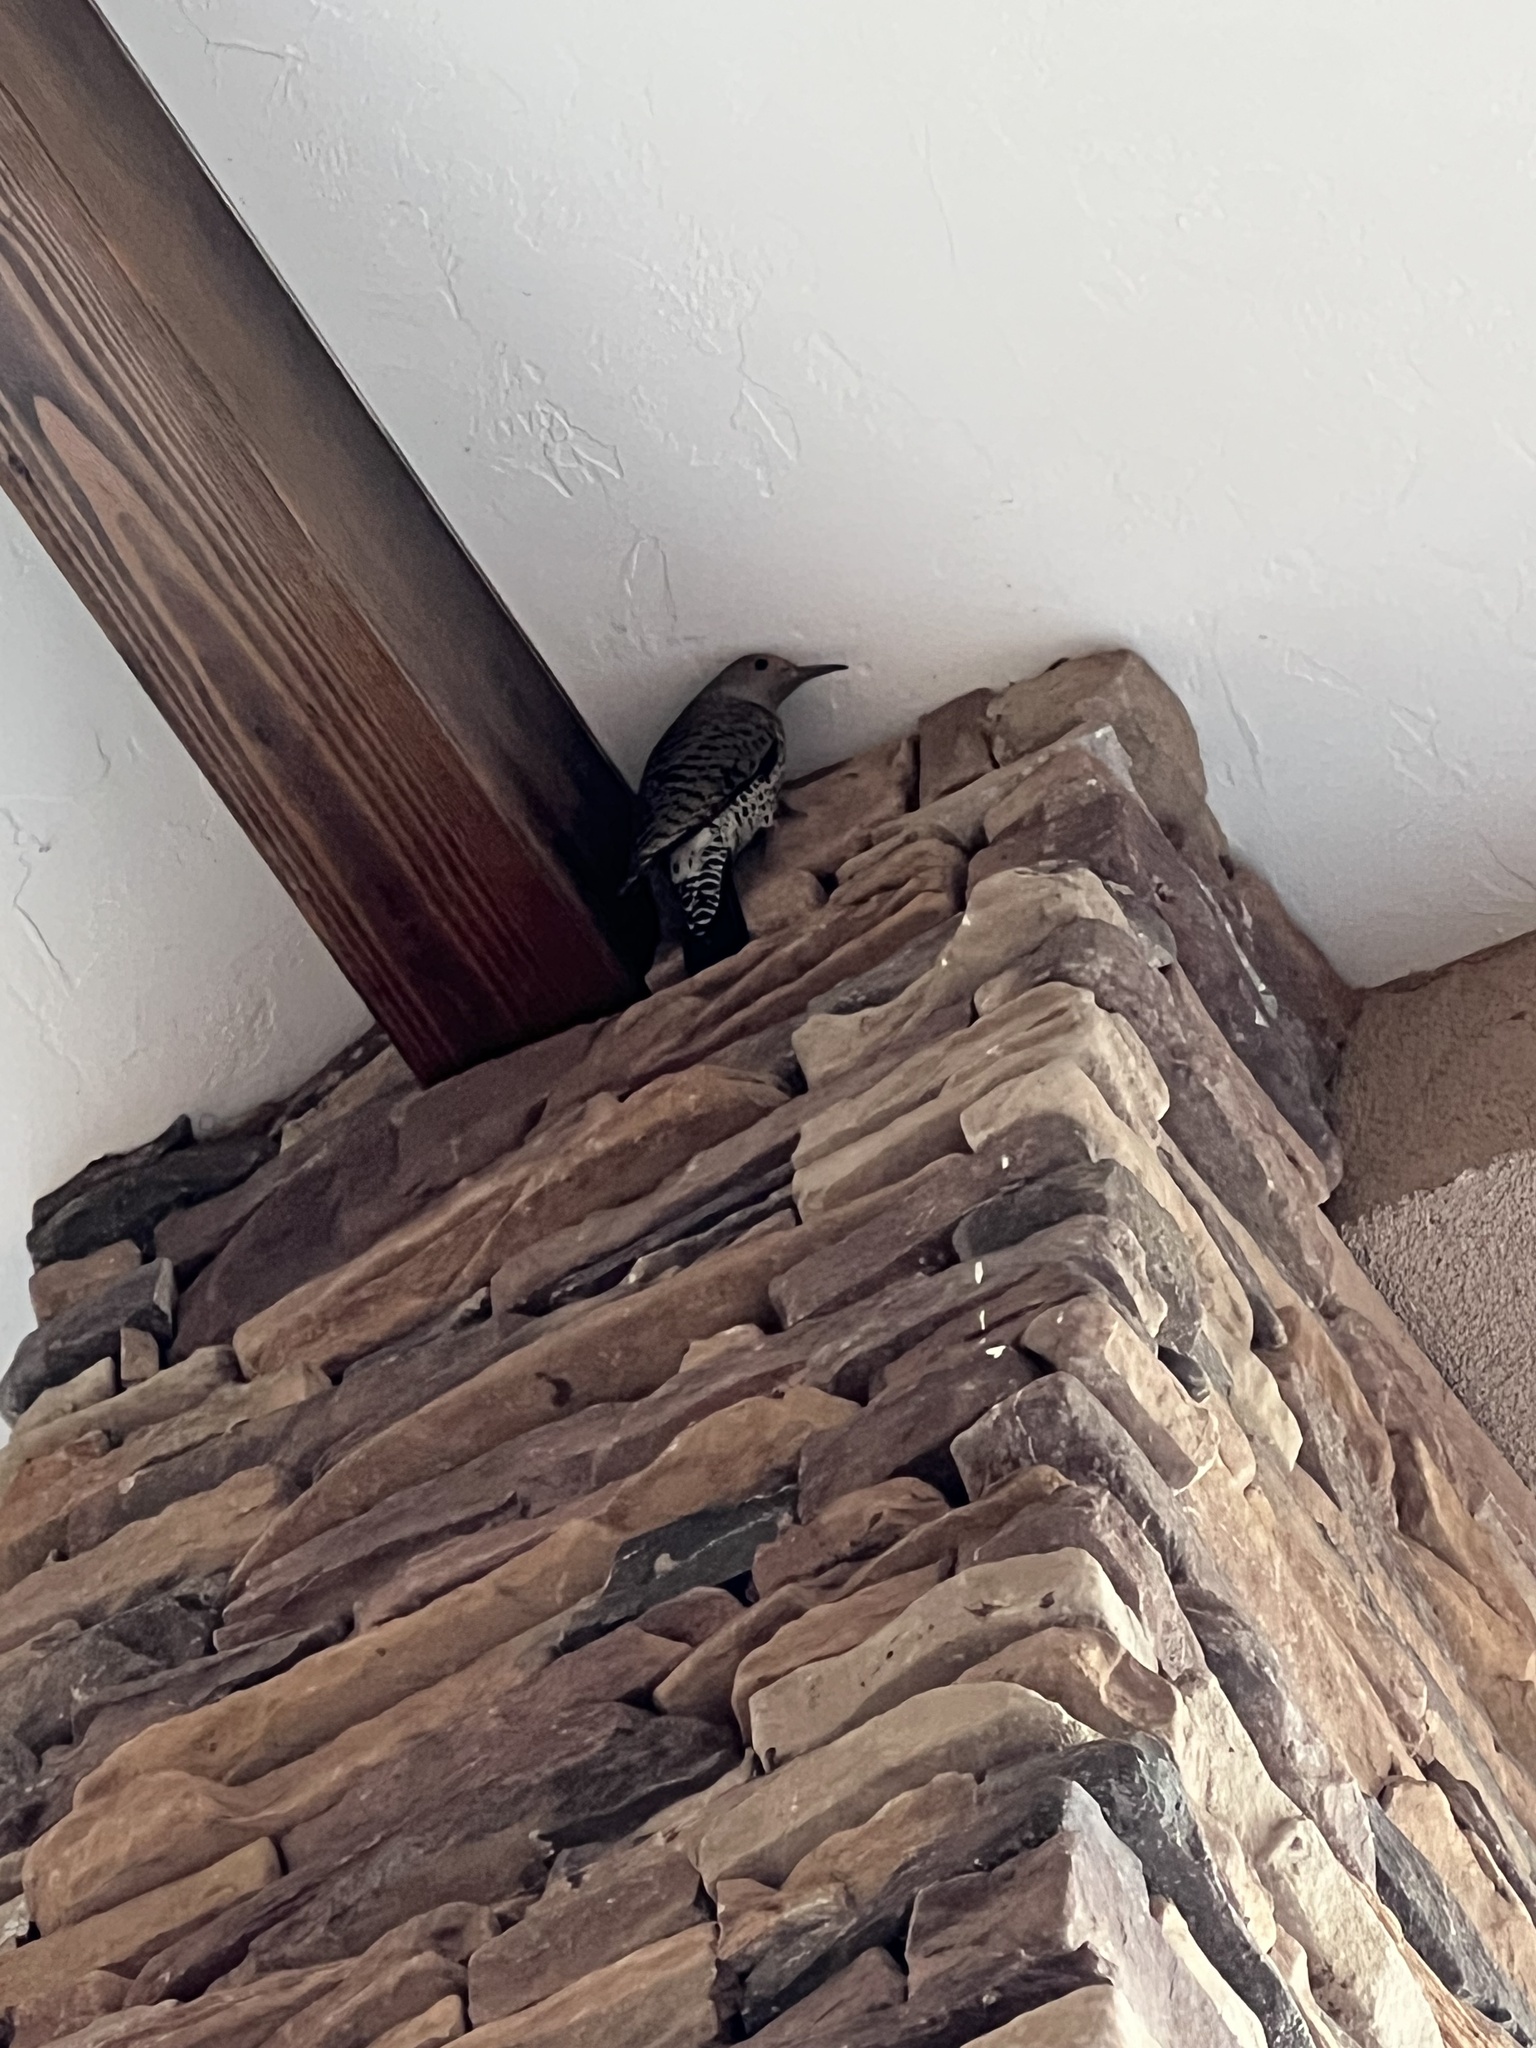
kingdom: Animalia
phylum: Chordata
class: Aves
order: Piciformes
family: Picidae
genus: Colaptes
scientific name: Colaptes auratus
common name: Northern flicker
